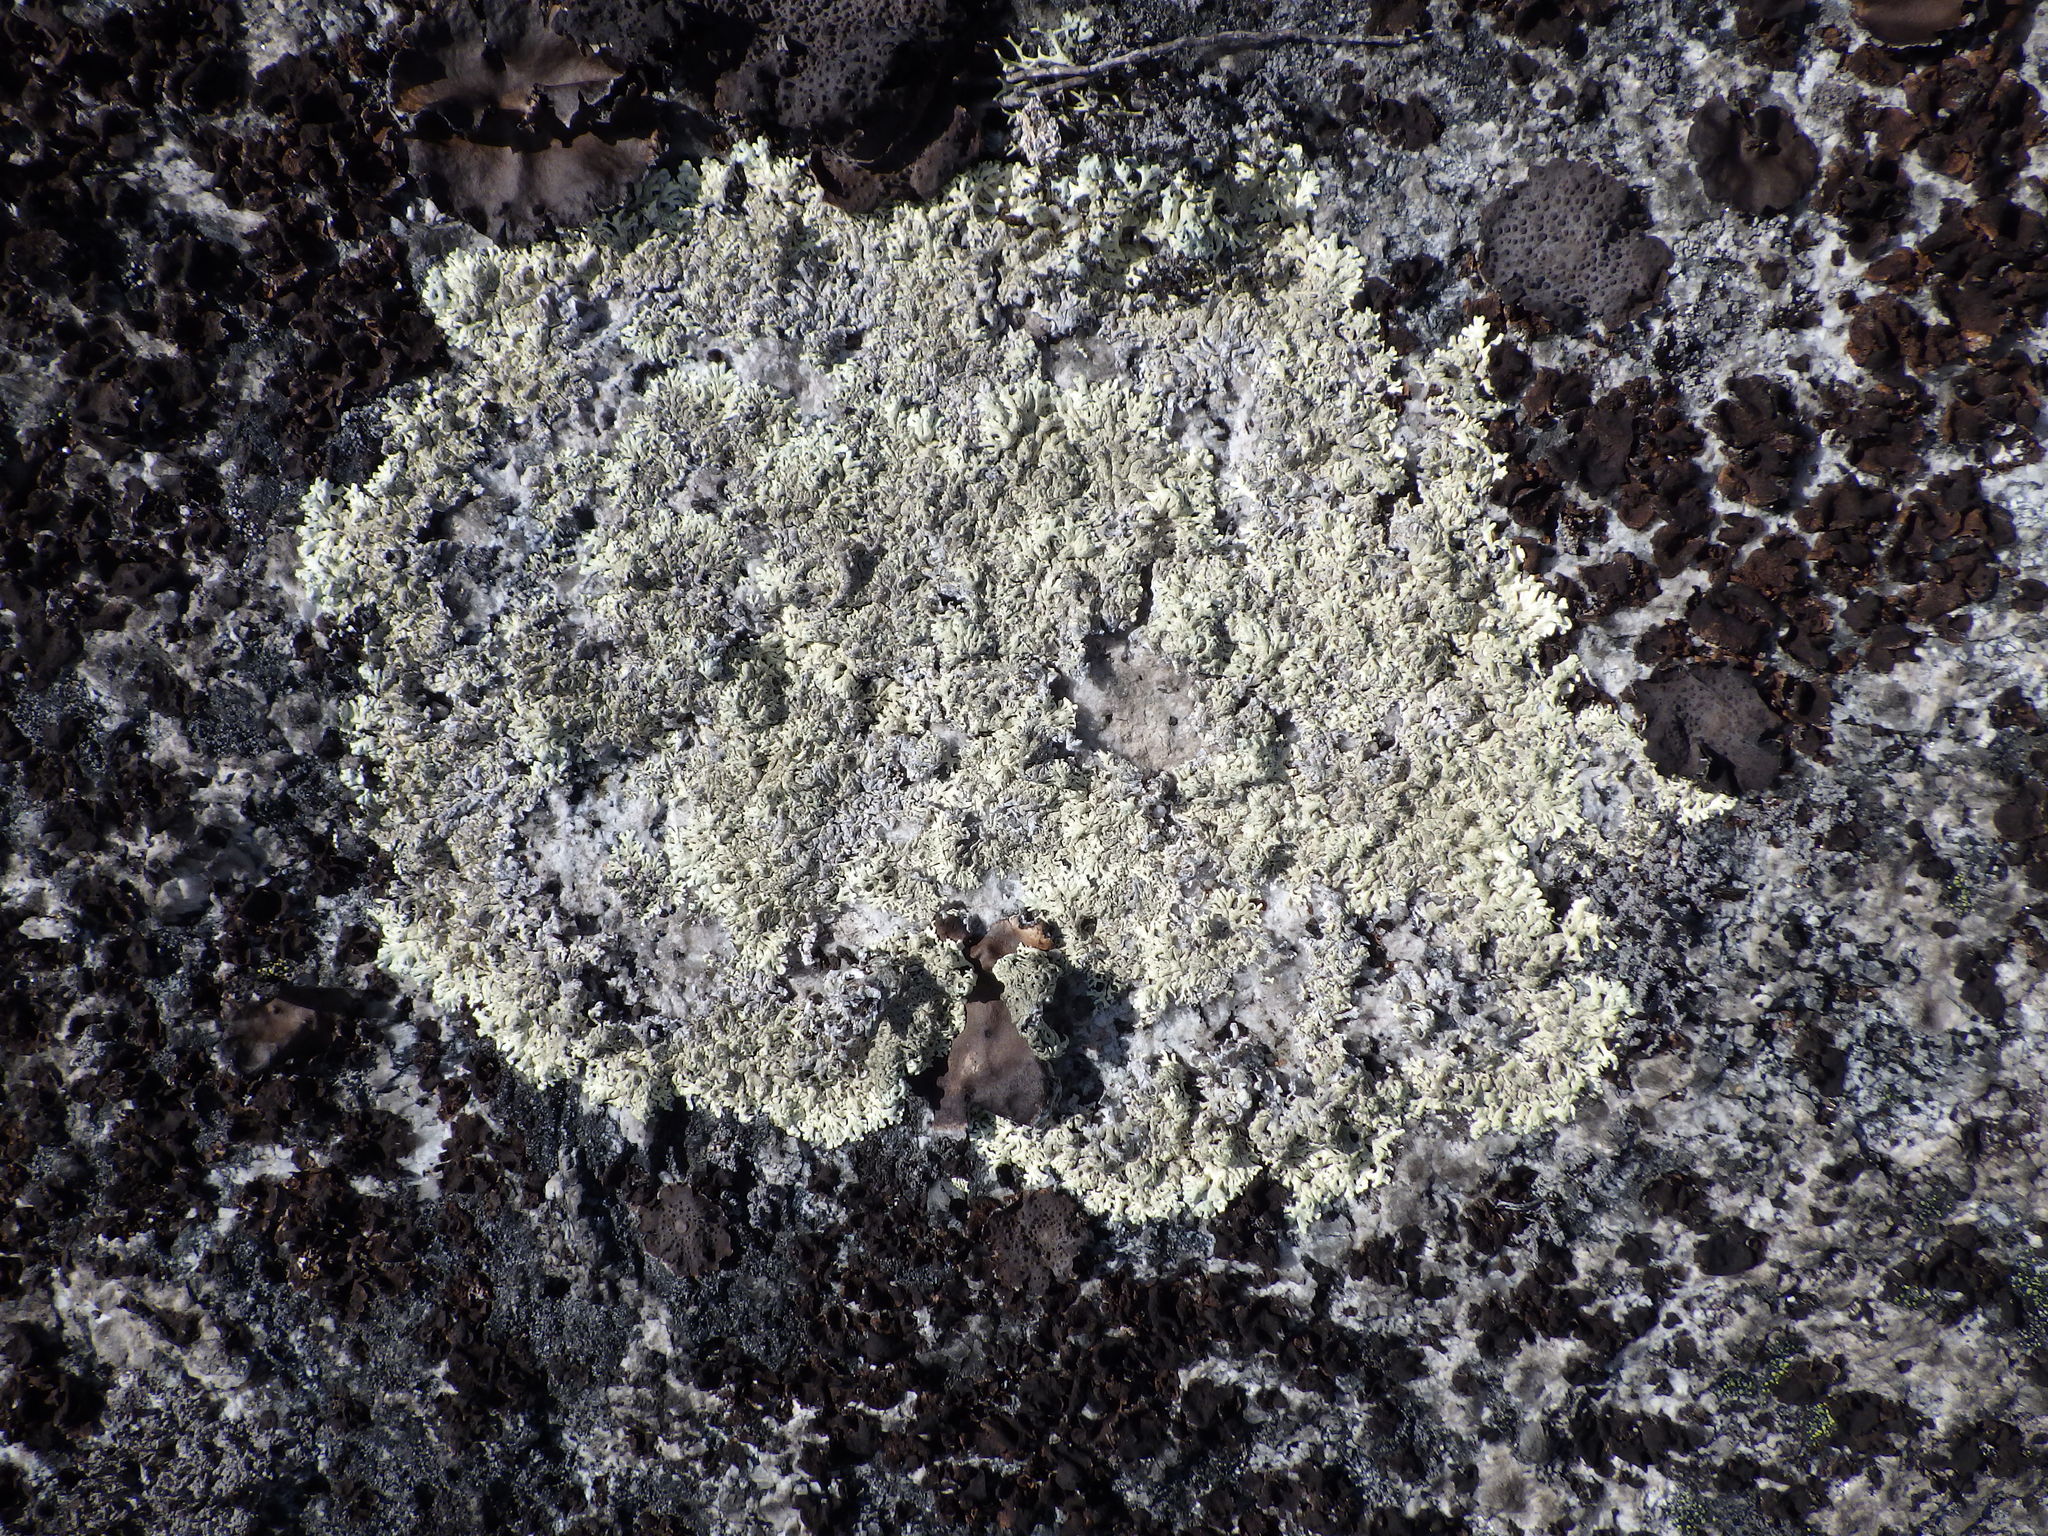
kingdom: Fungi
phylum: Ascomycota
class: Lecanoromycetes
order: Lecanorales
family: Parmeliaceae
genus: Arctoparmelia
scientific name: Arctoparmelia centrifuga
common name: Concentric ring lichen
